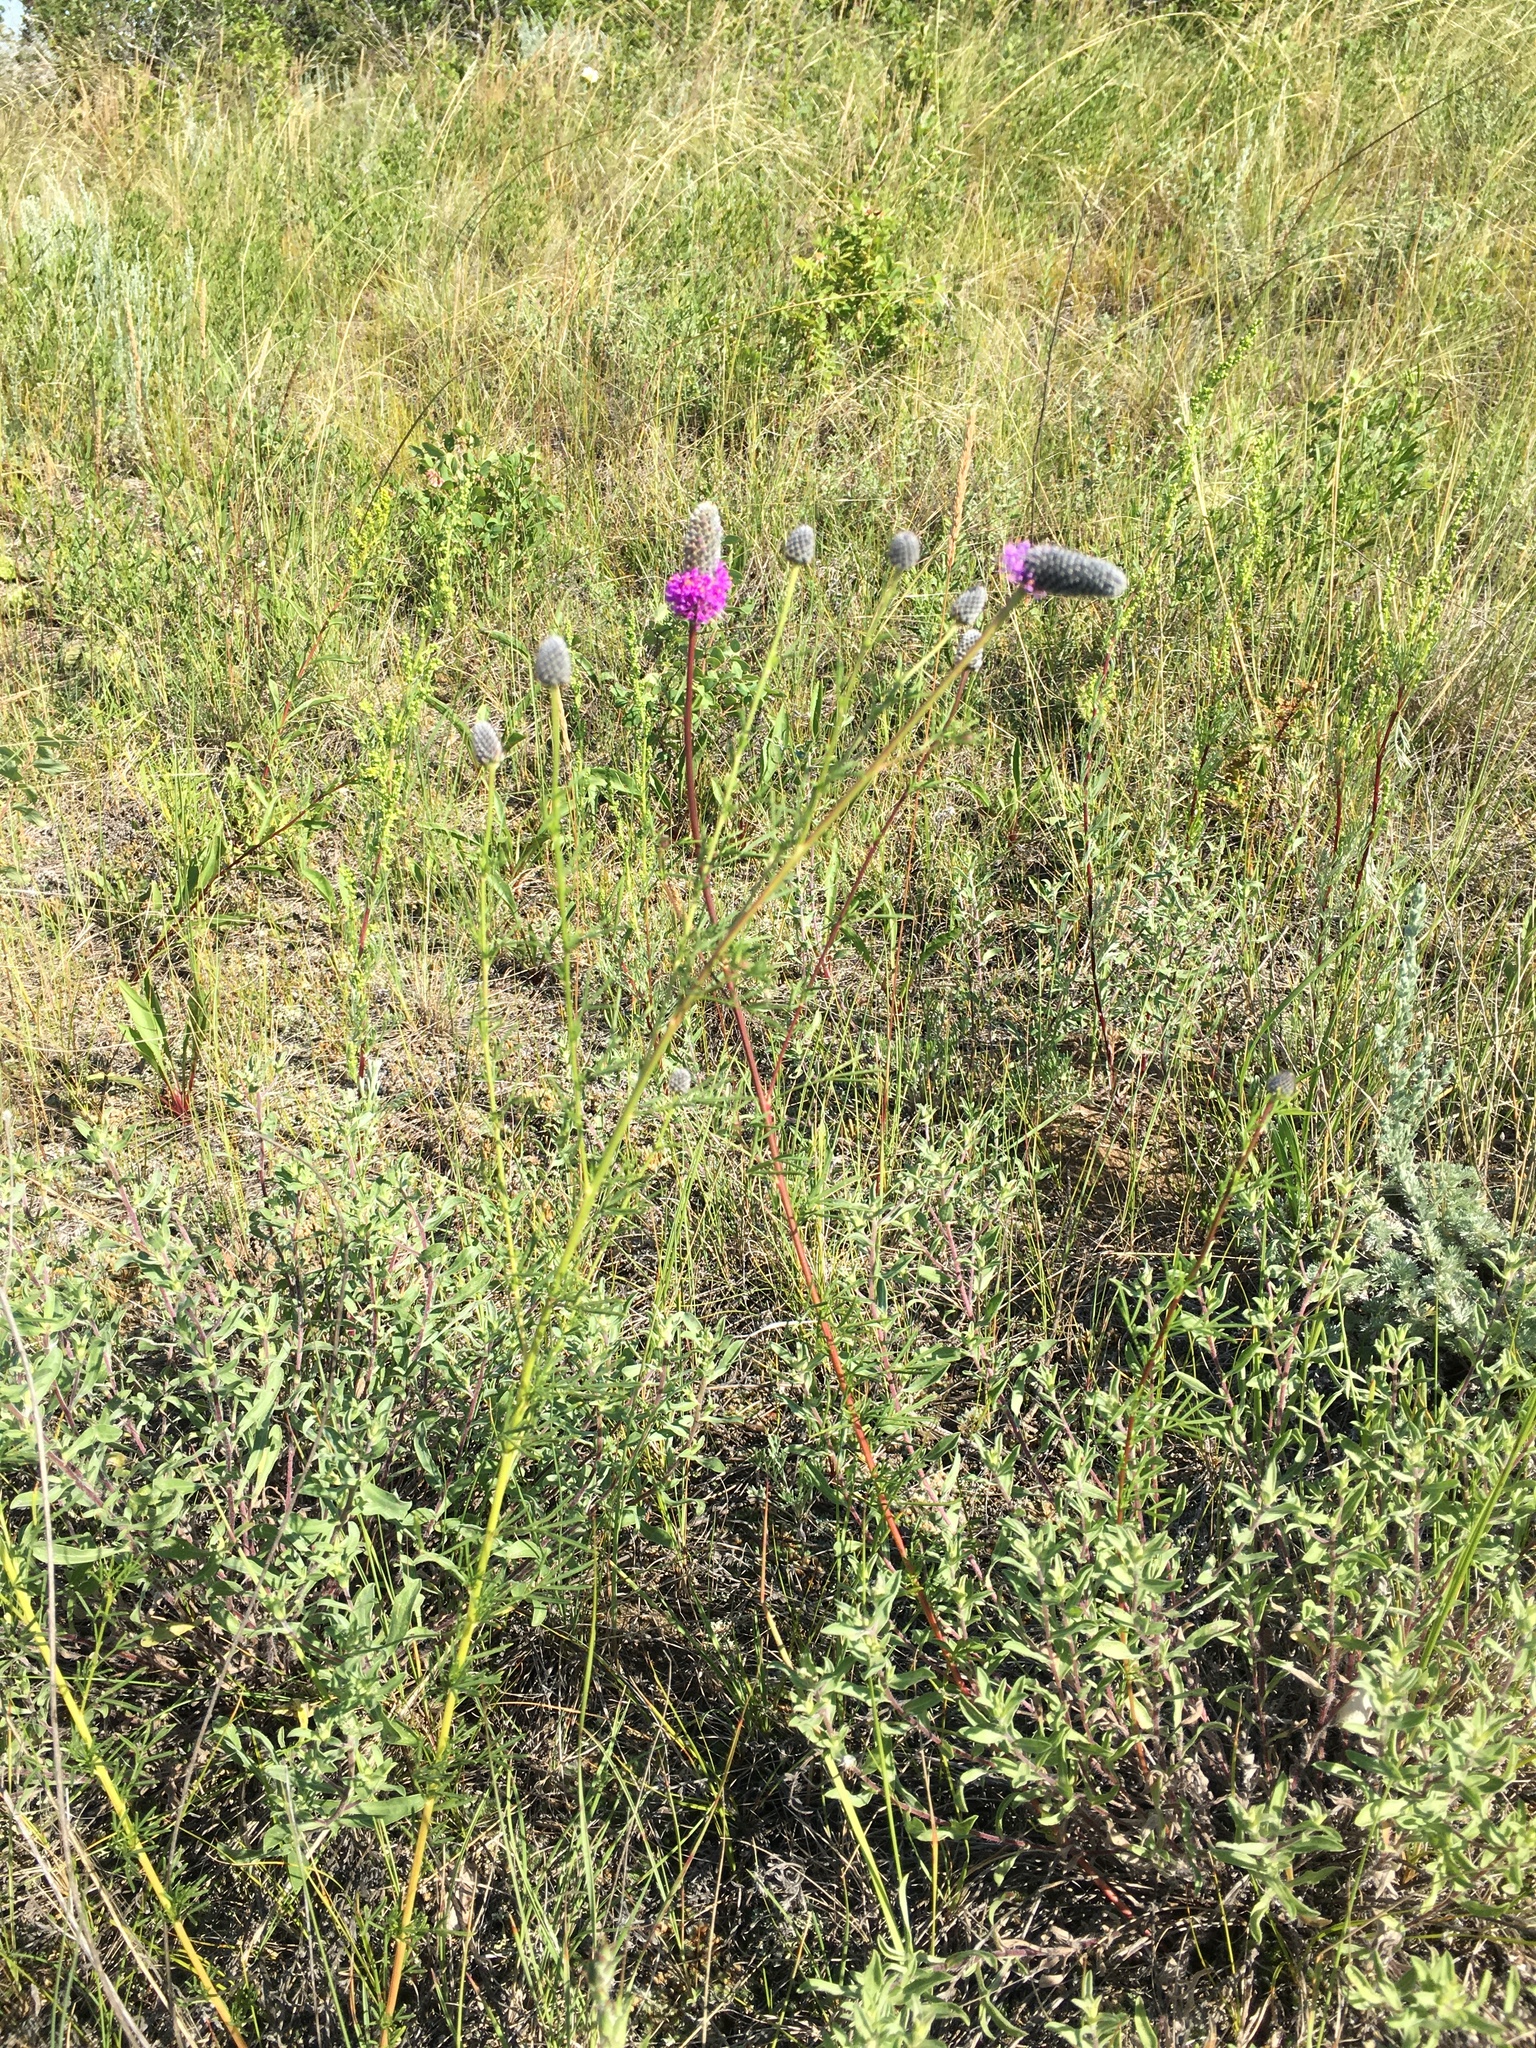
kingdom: Plantae
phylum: Tracheophyta
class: Magnoliopsida
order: Fabales
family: Fabaceae
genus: Dalea
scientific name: Dalea purpurea
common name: Purple prairie-clover
